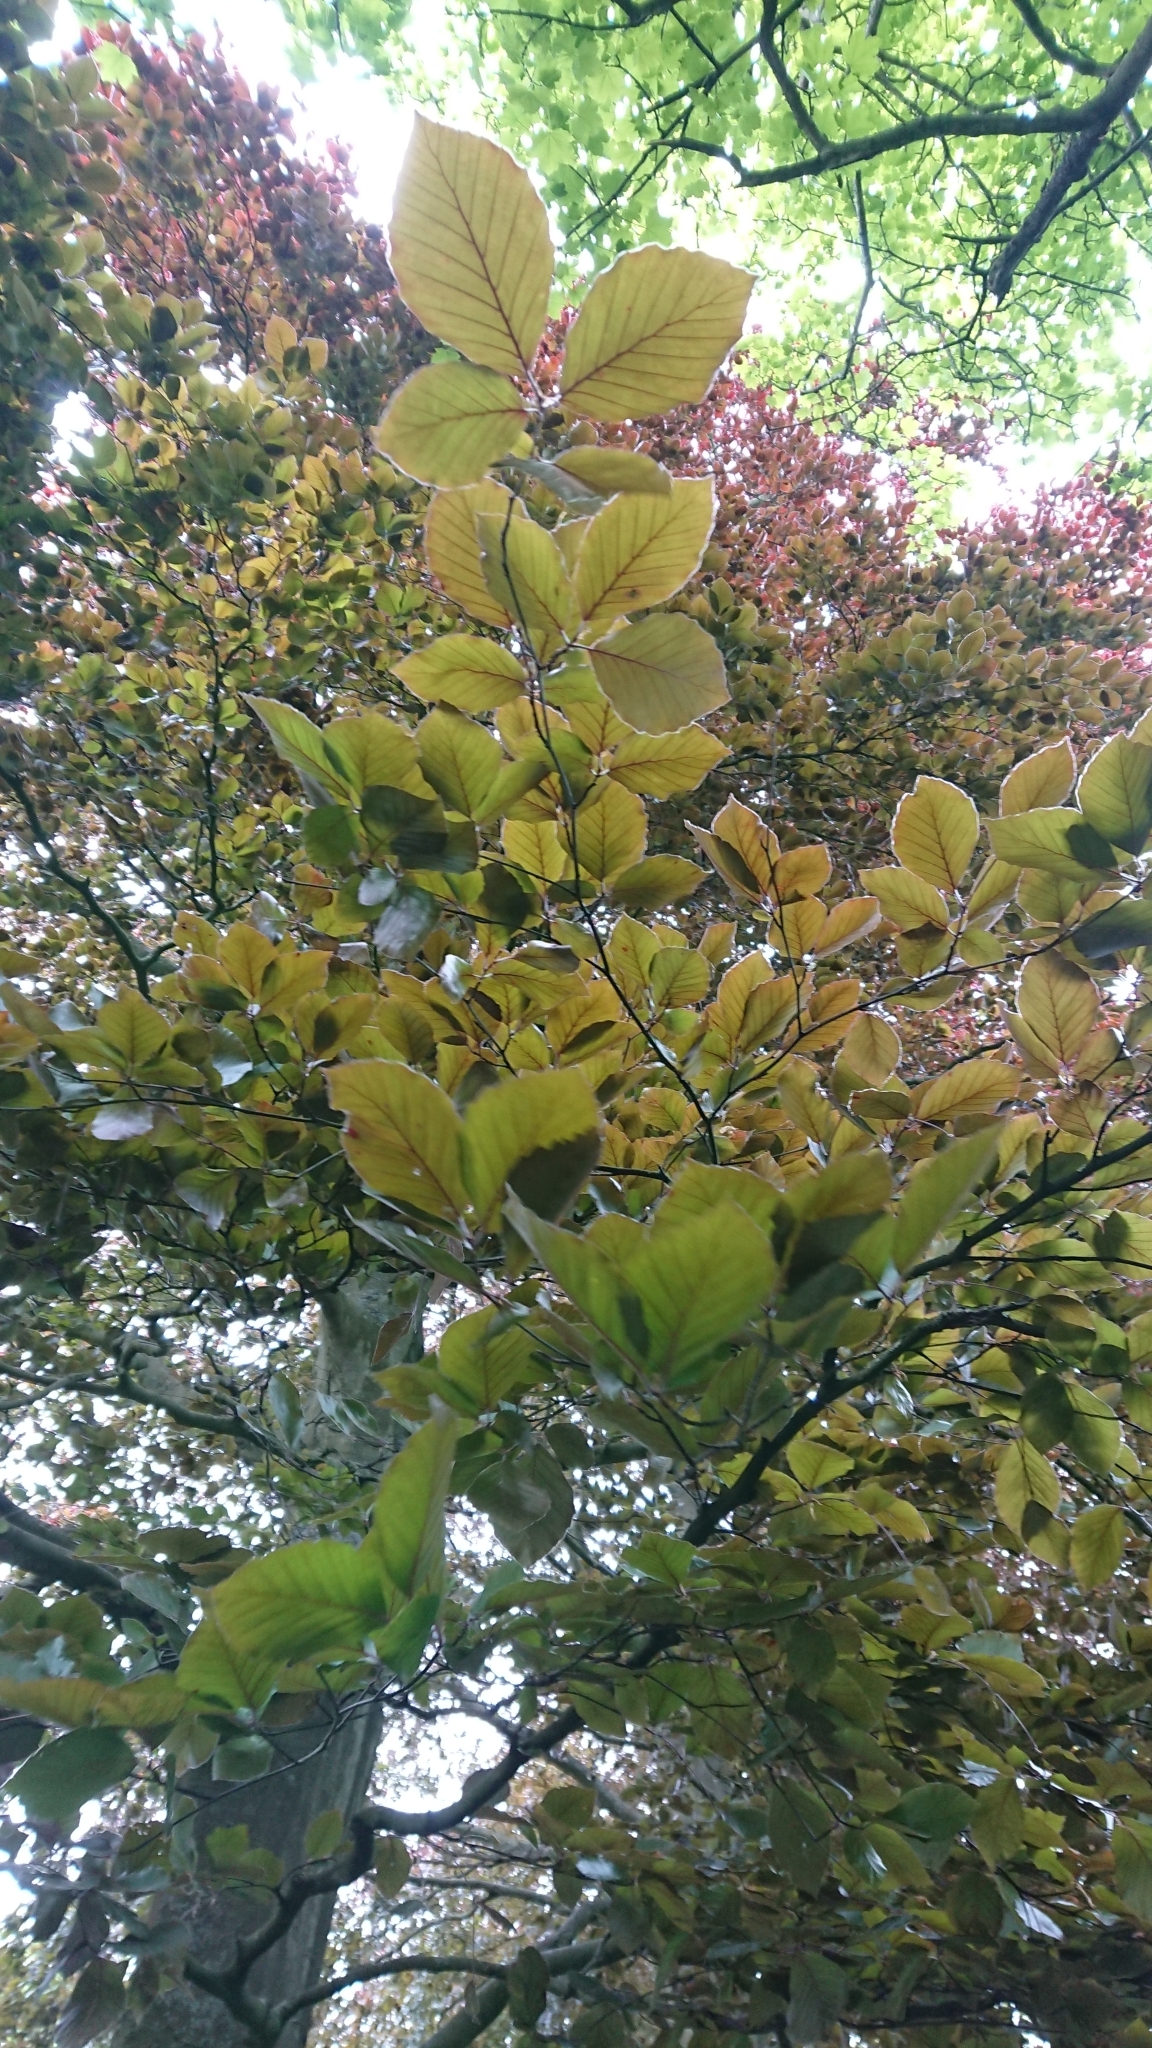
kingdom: Plantae
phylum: Tracheophyta
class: Magnoliopsida
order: Fagales
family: Fagaceae
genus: Fagus
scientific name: Fagus sylvatica
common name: Beech
